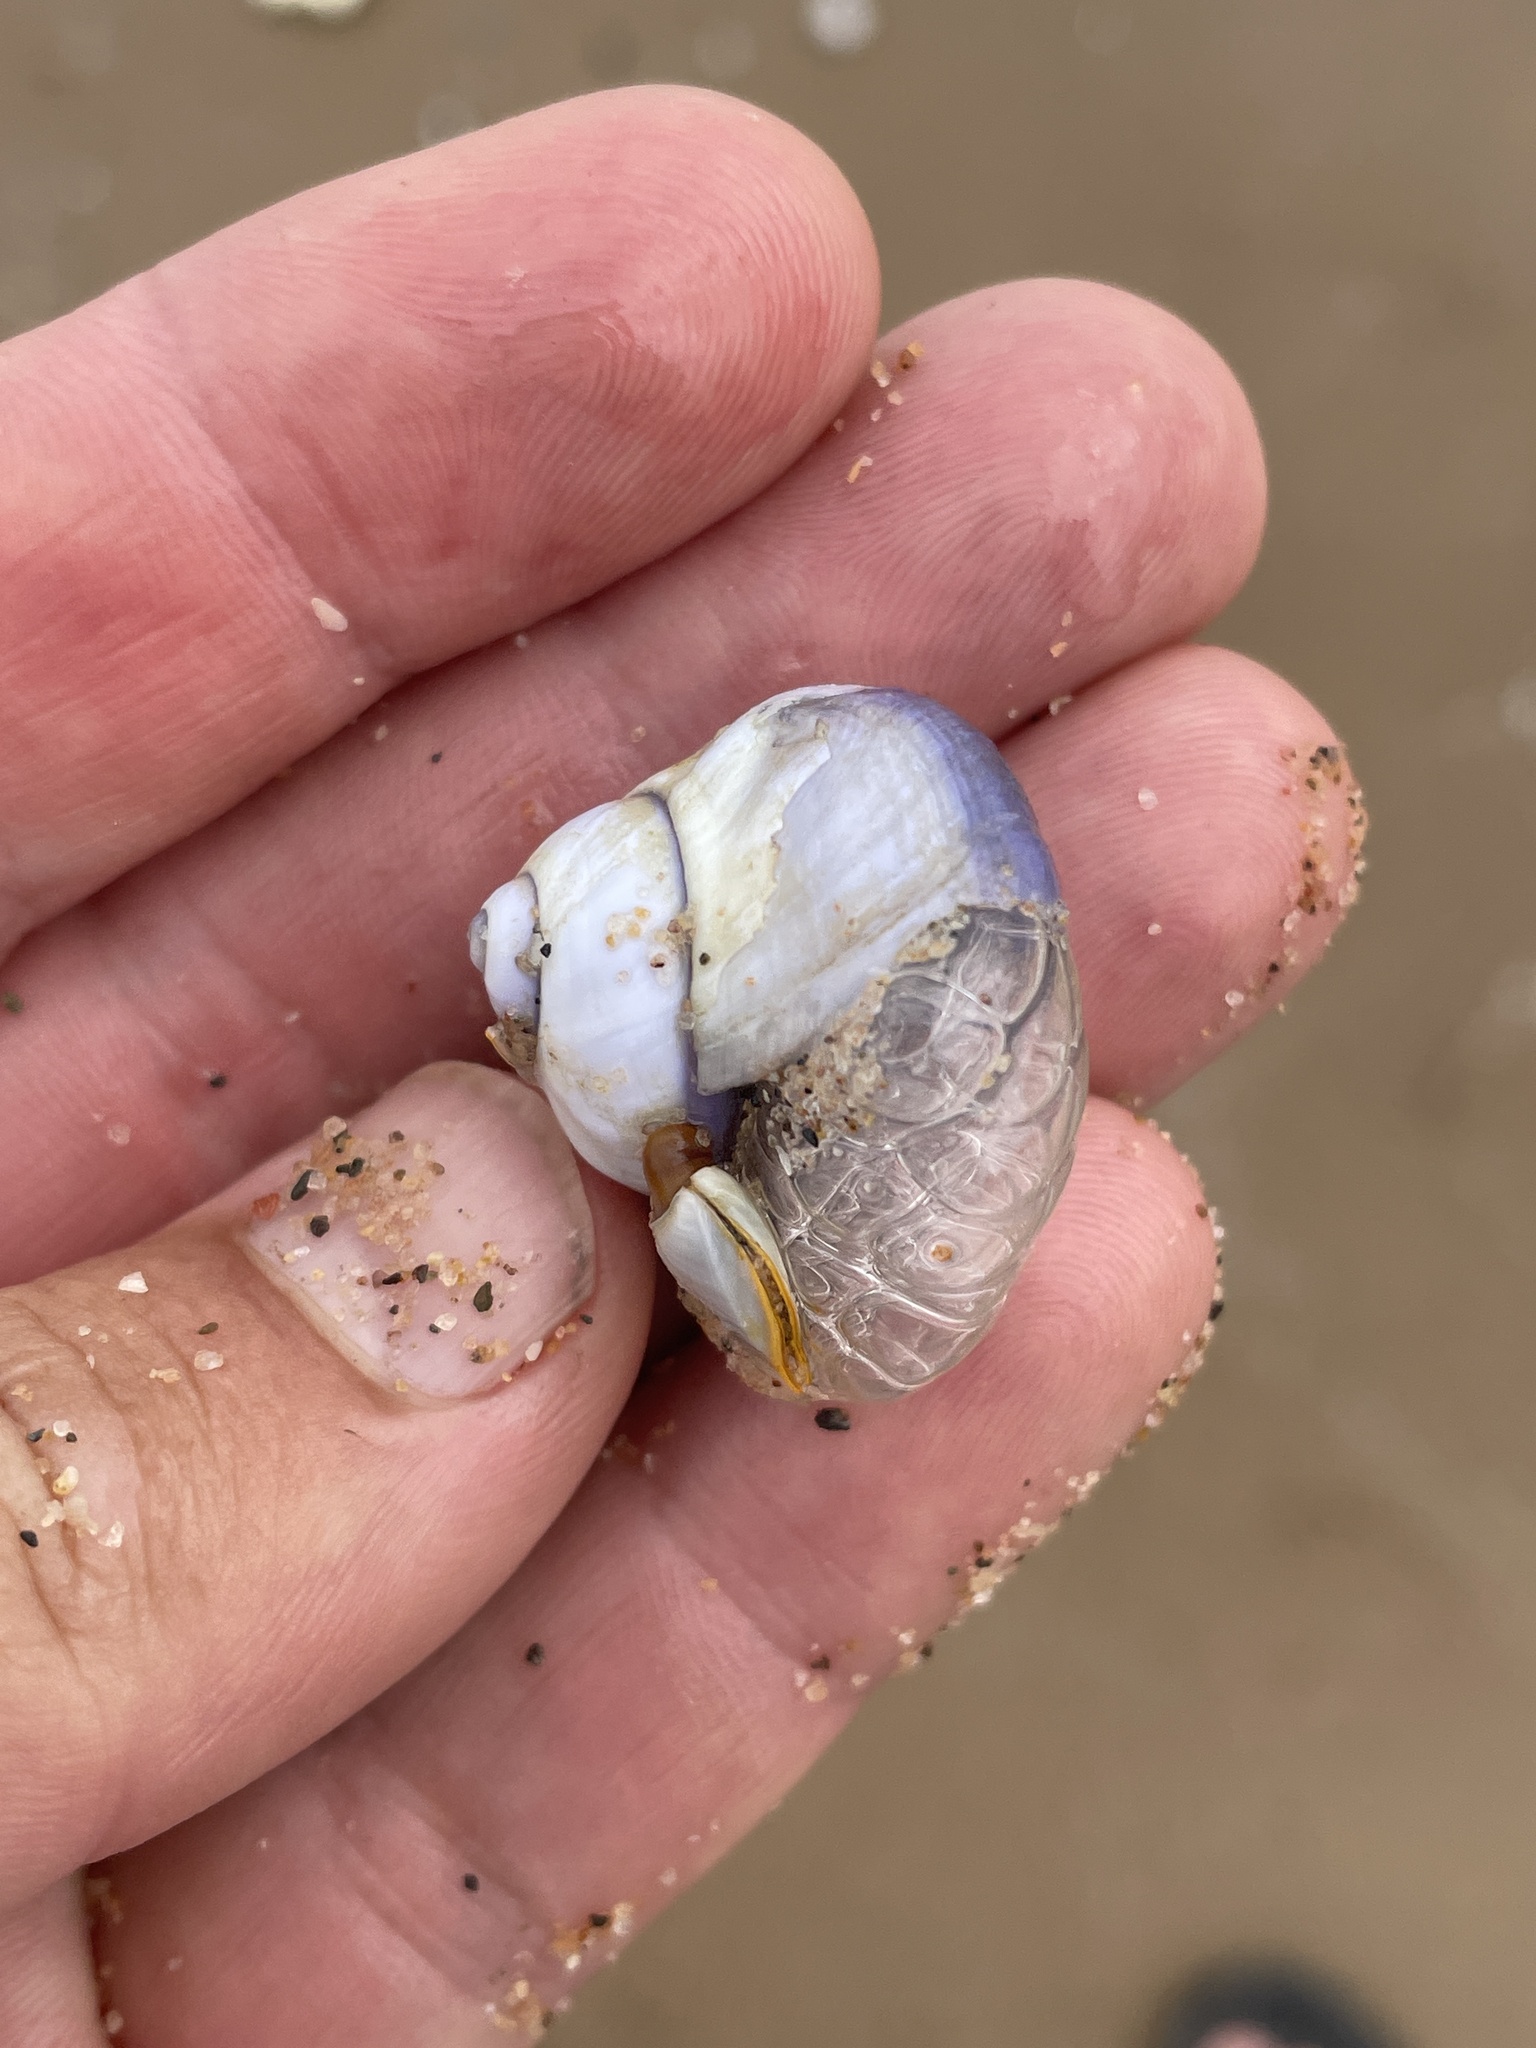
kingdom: Animalia
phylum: Mollusca
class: Gastropoda
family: Epitoniidae
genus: Janthina
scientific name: Janthina janthina
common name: Common janthina
